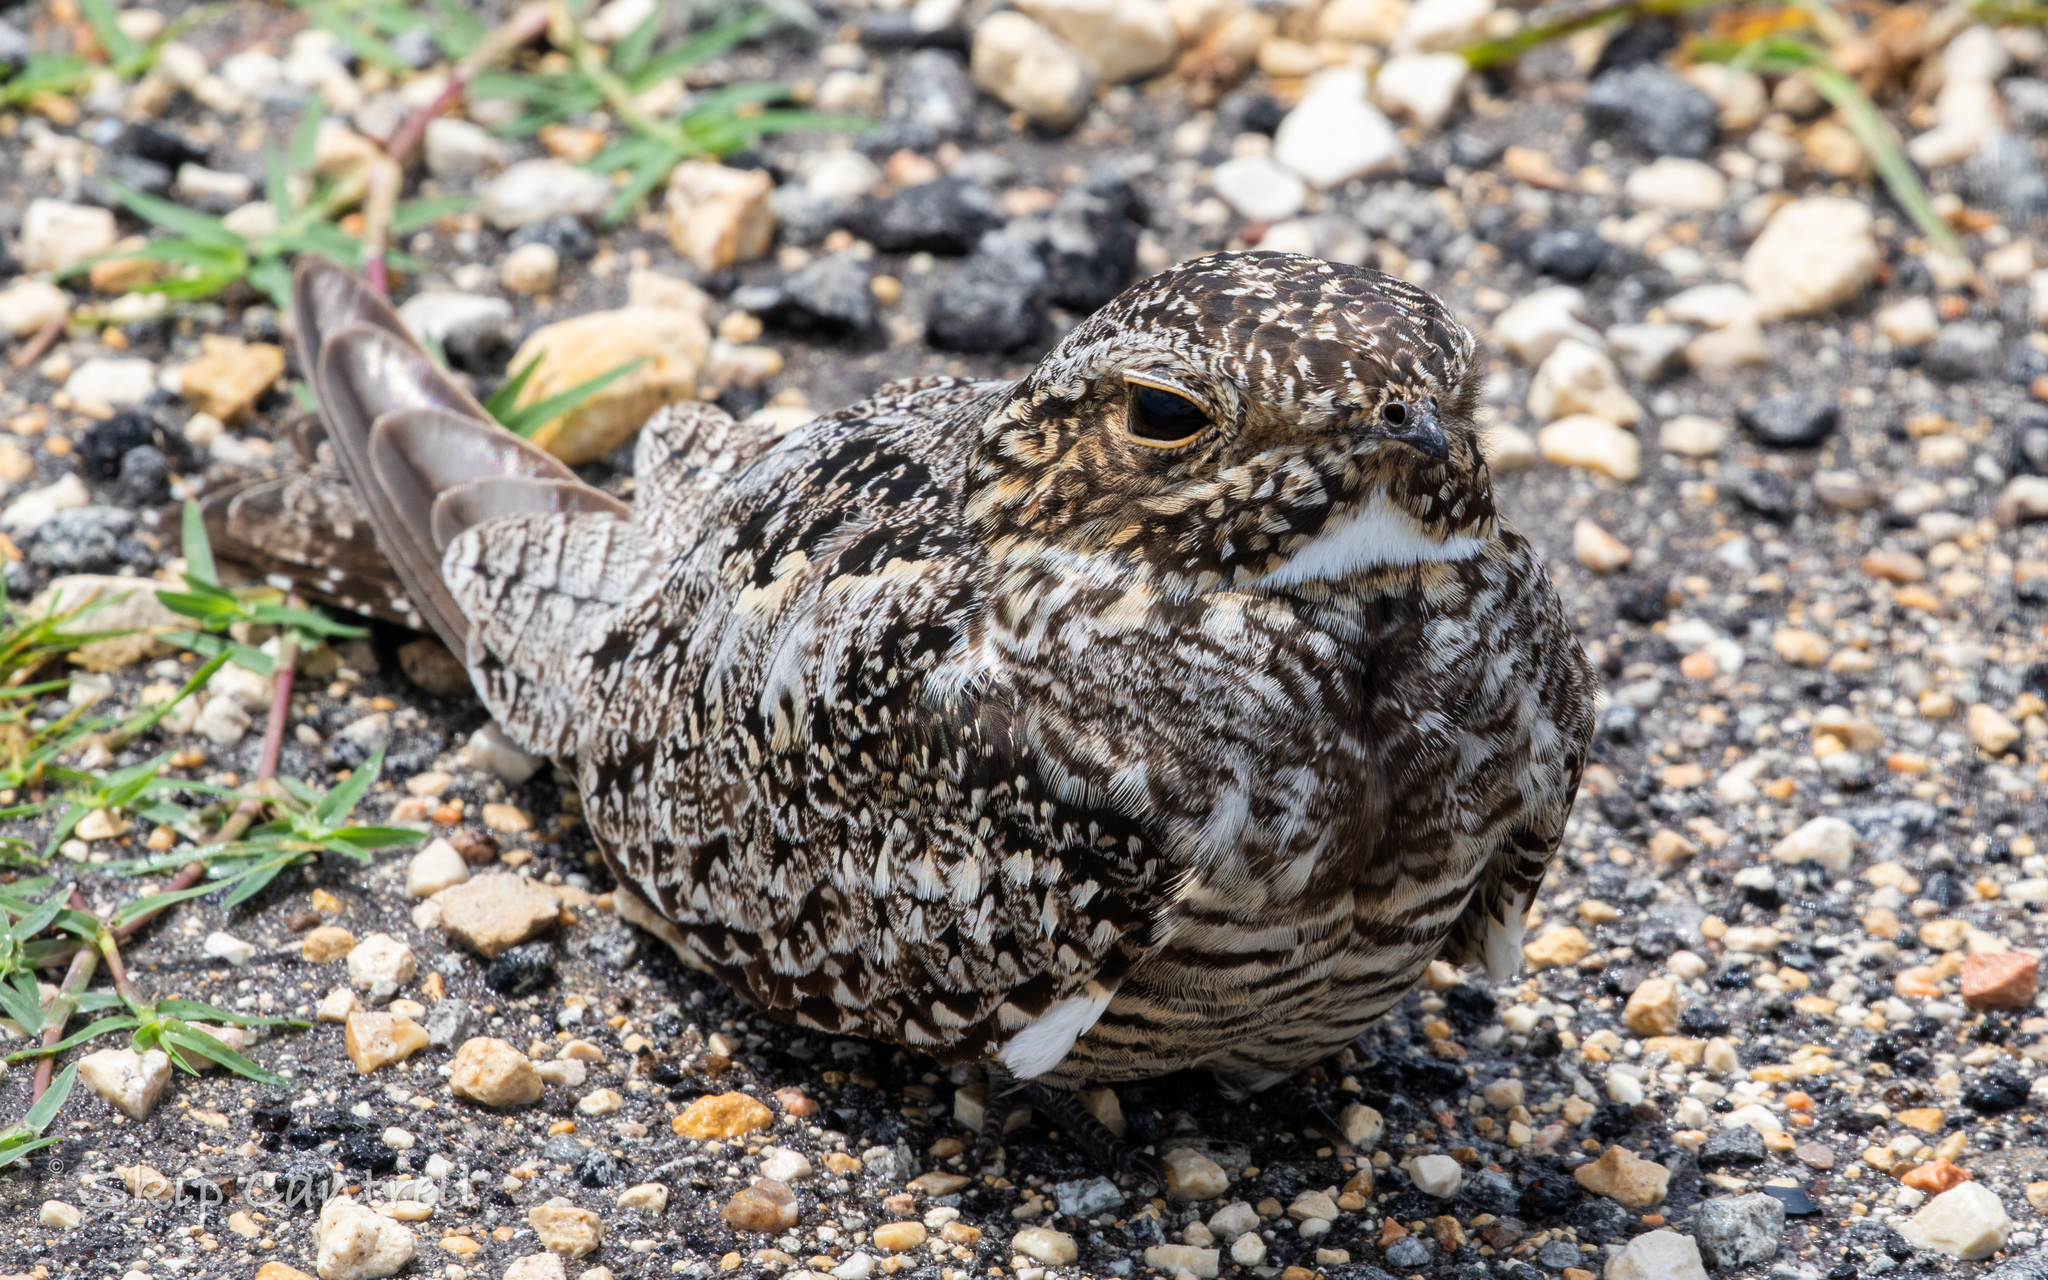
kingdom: Animalia
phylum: Chordata
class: Aves
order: Caprimulgiformes
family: Caprimulgidae
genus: Chordeiles
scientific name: Chordeiles minor
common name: Common nighthawk
